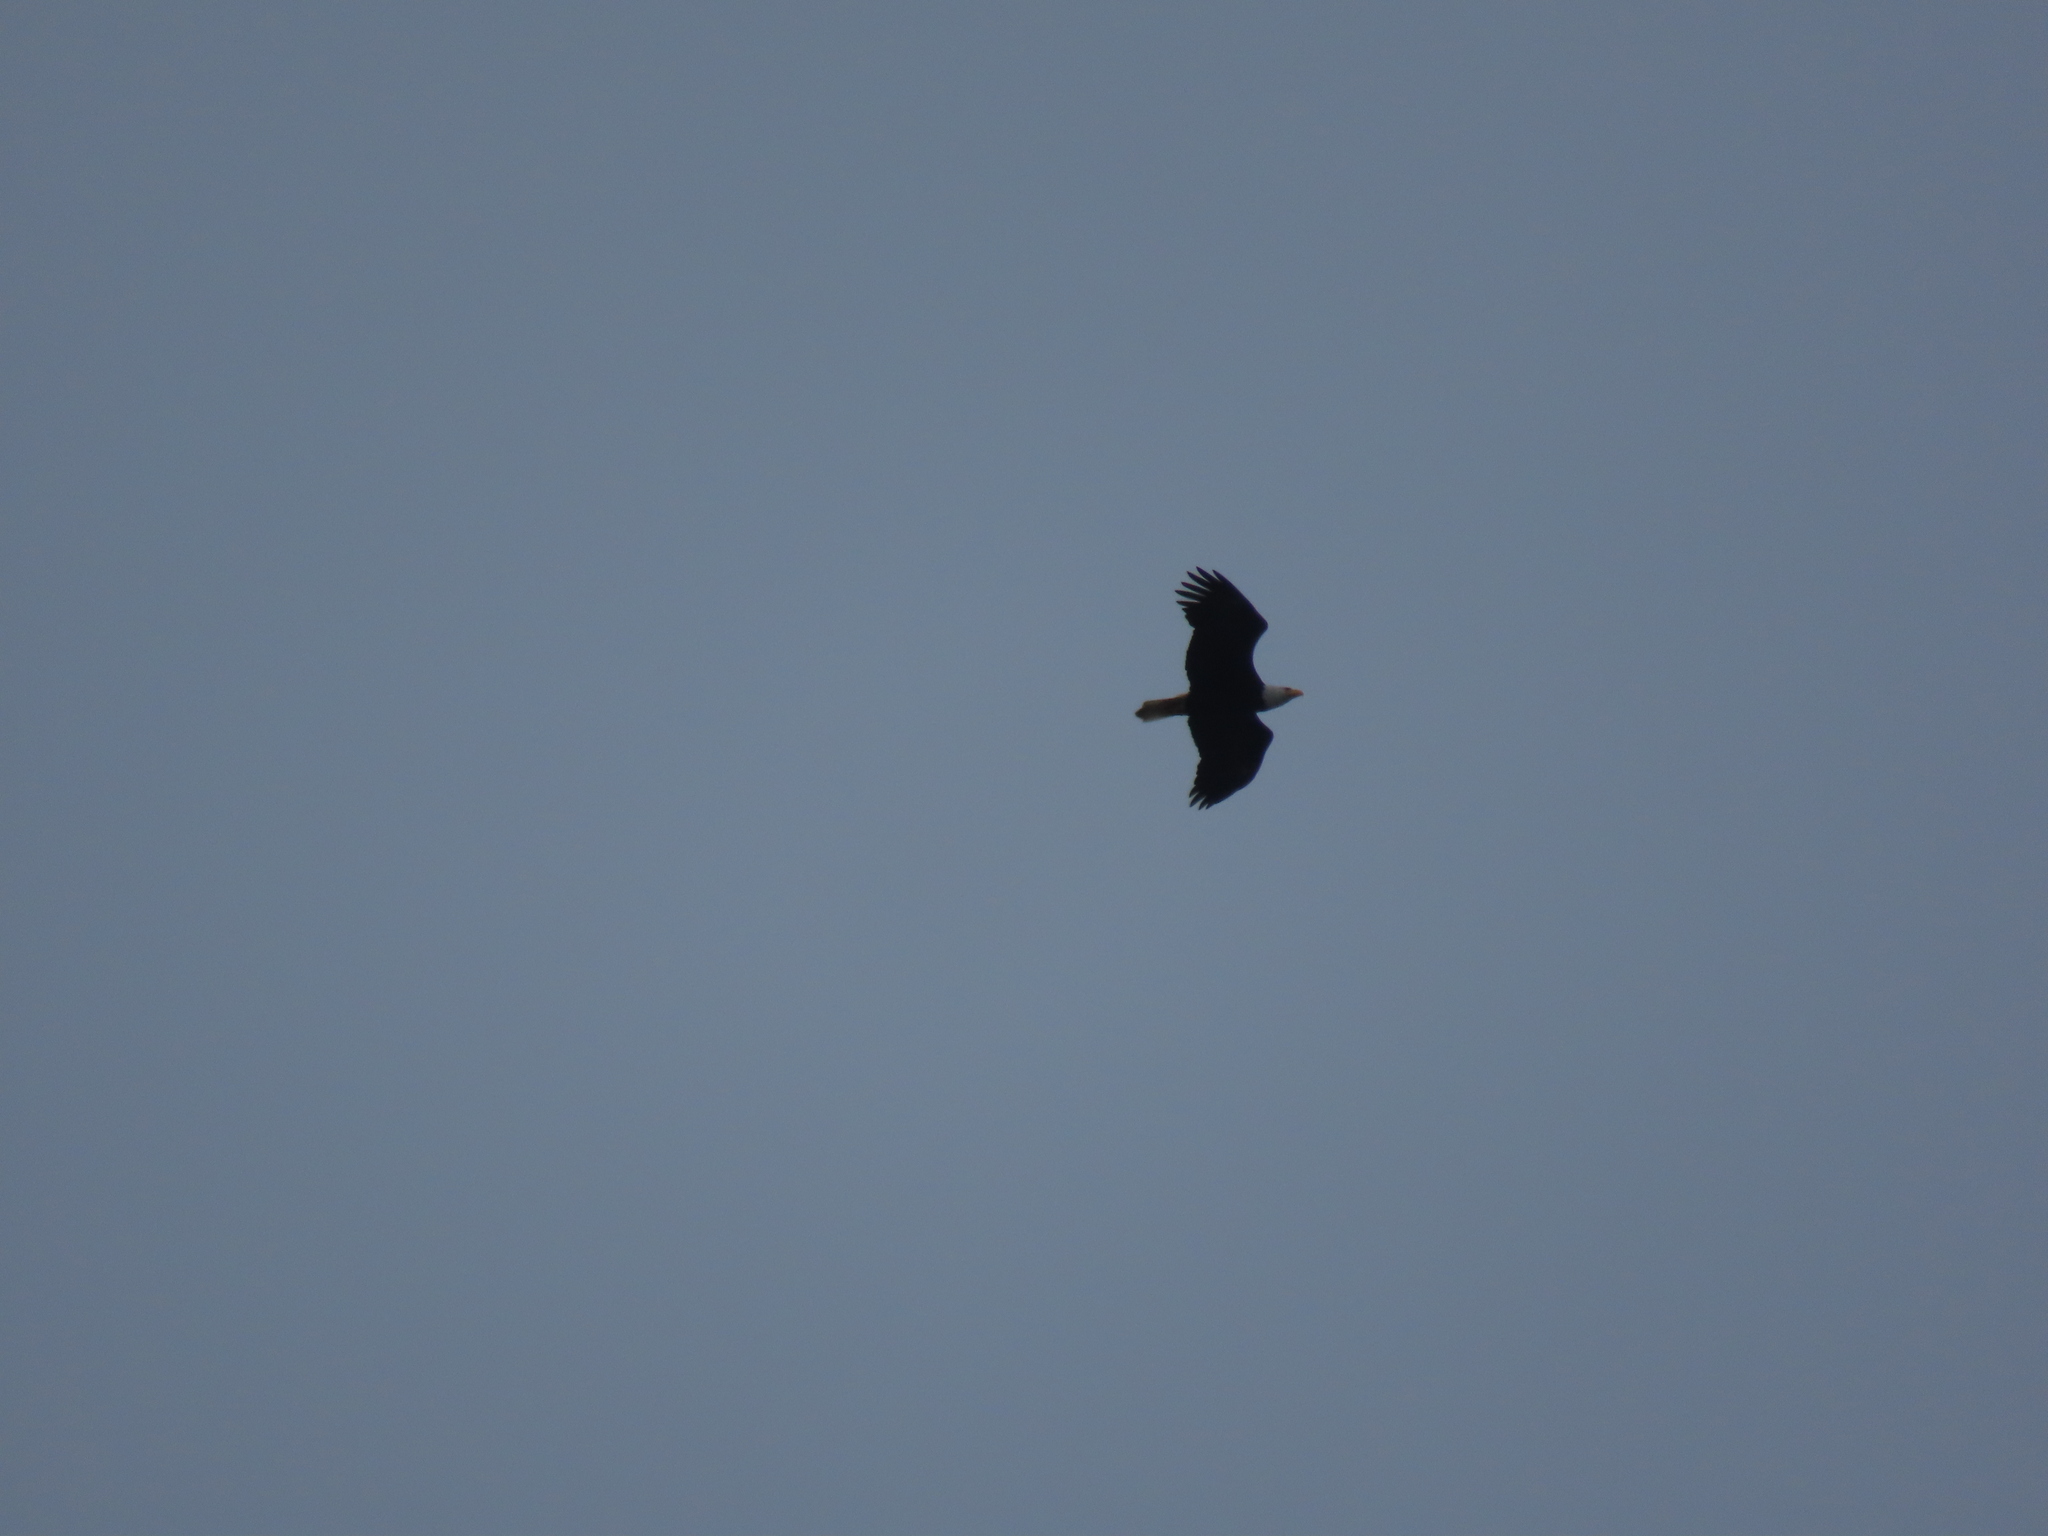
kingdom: Animalia
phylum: Chordata
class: Aves
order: Accipitriformes
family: Accipitridae
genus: Haliaeetus
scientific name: Haliaeetus leucocephalus
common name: Bald eagle
